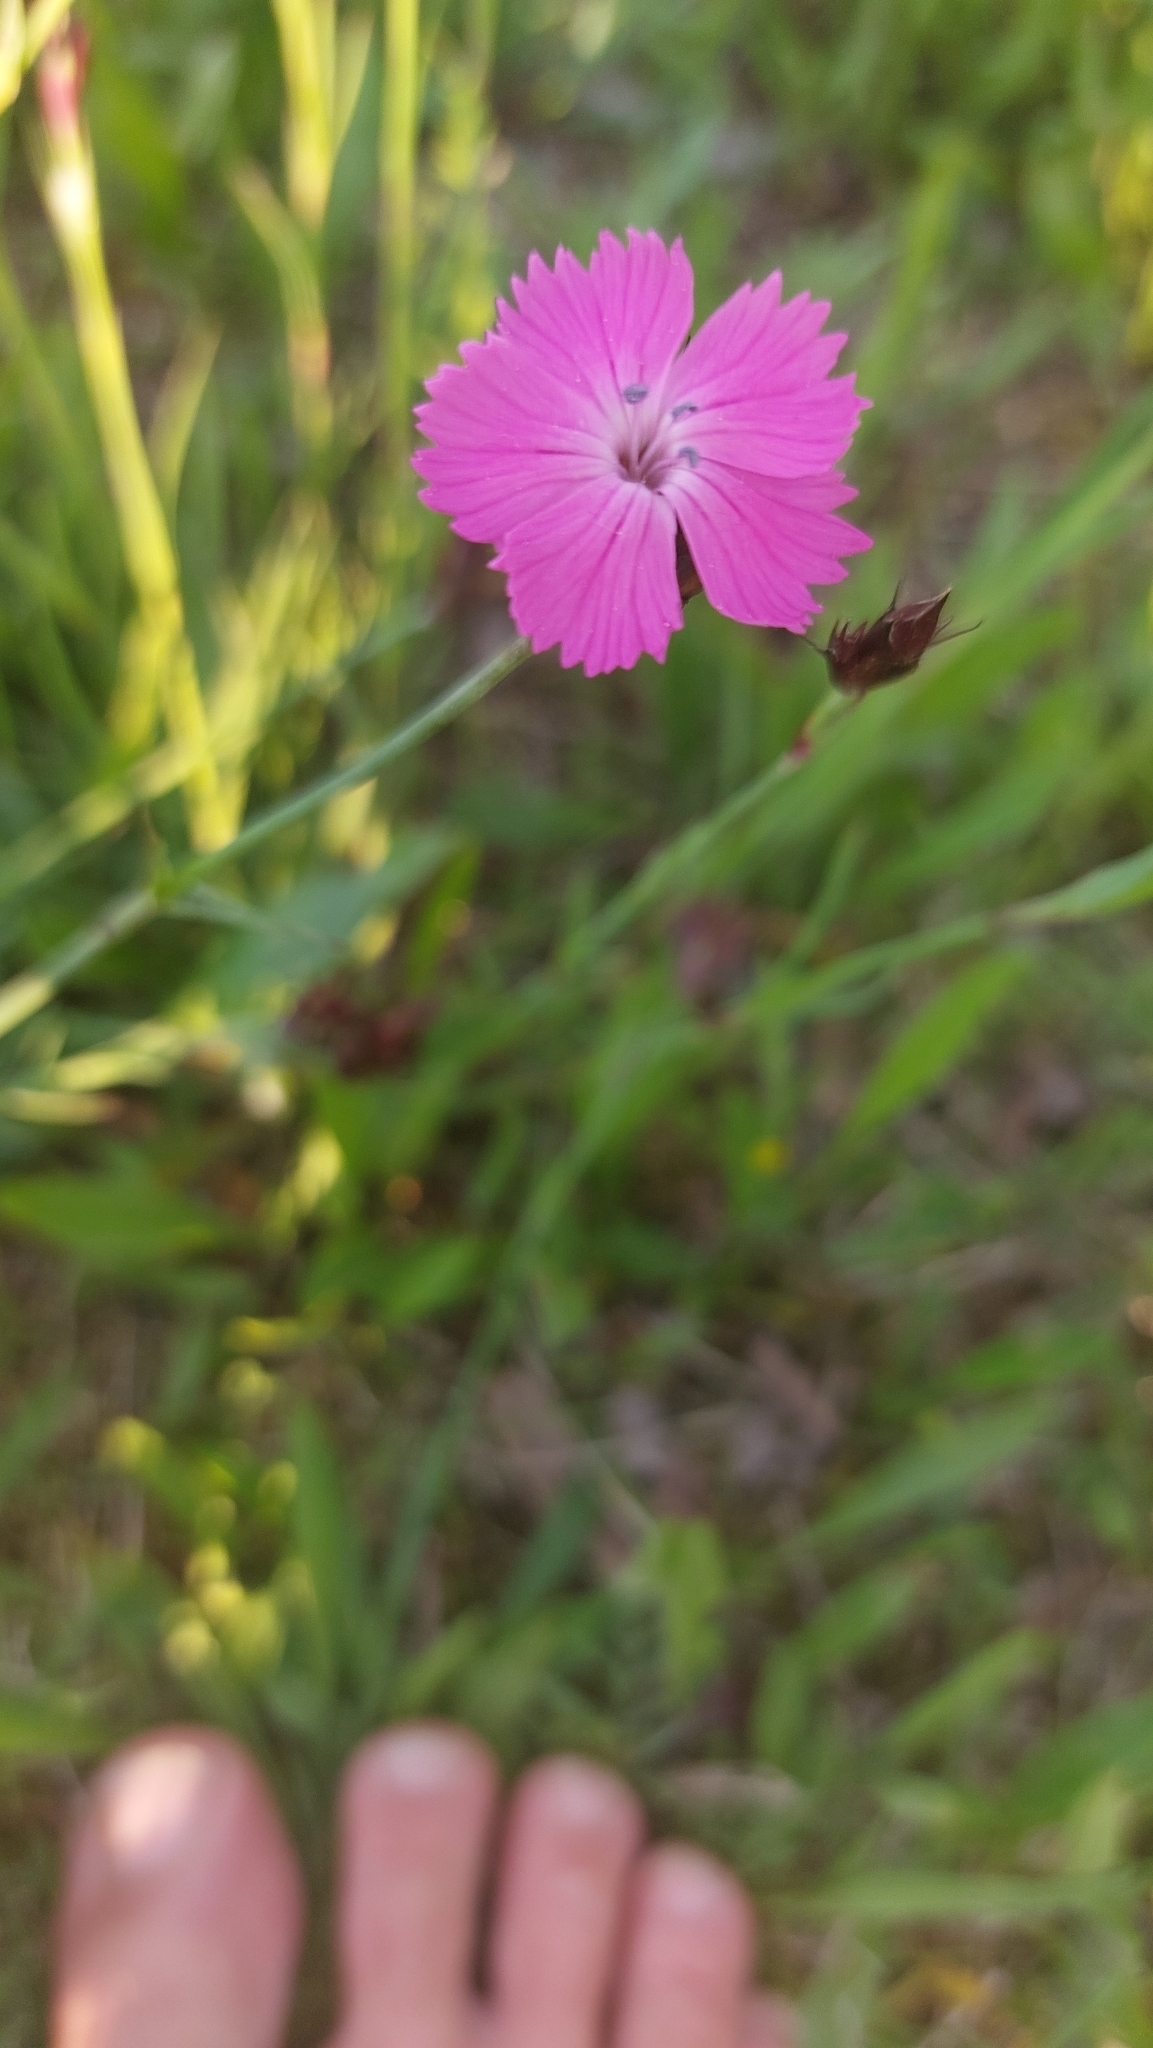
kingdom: Plantae
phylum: Tracheophyta
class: Magnoliopsida
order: Caryophyllales
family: Caryophyllaceae
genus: Dianthus
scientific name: Dianthus carthusianorum
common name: Carthusian pink
